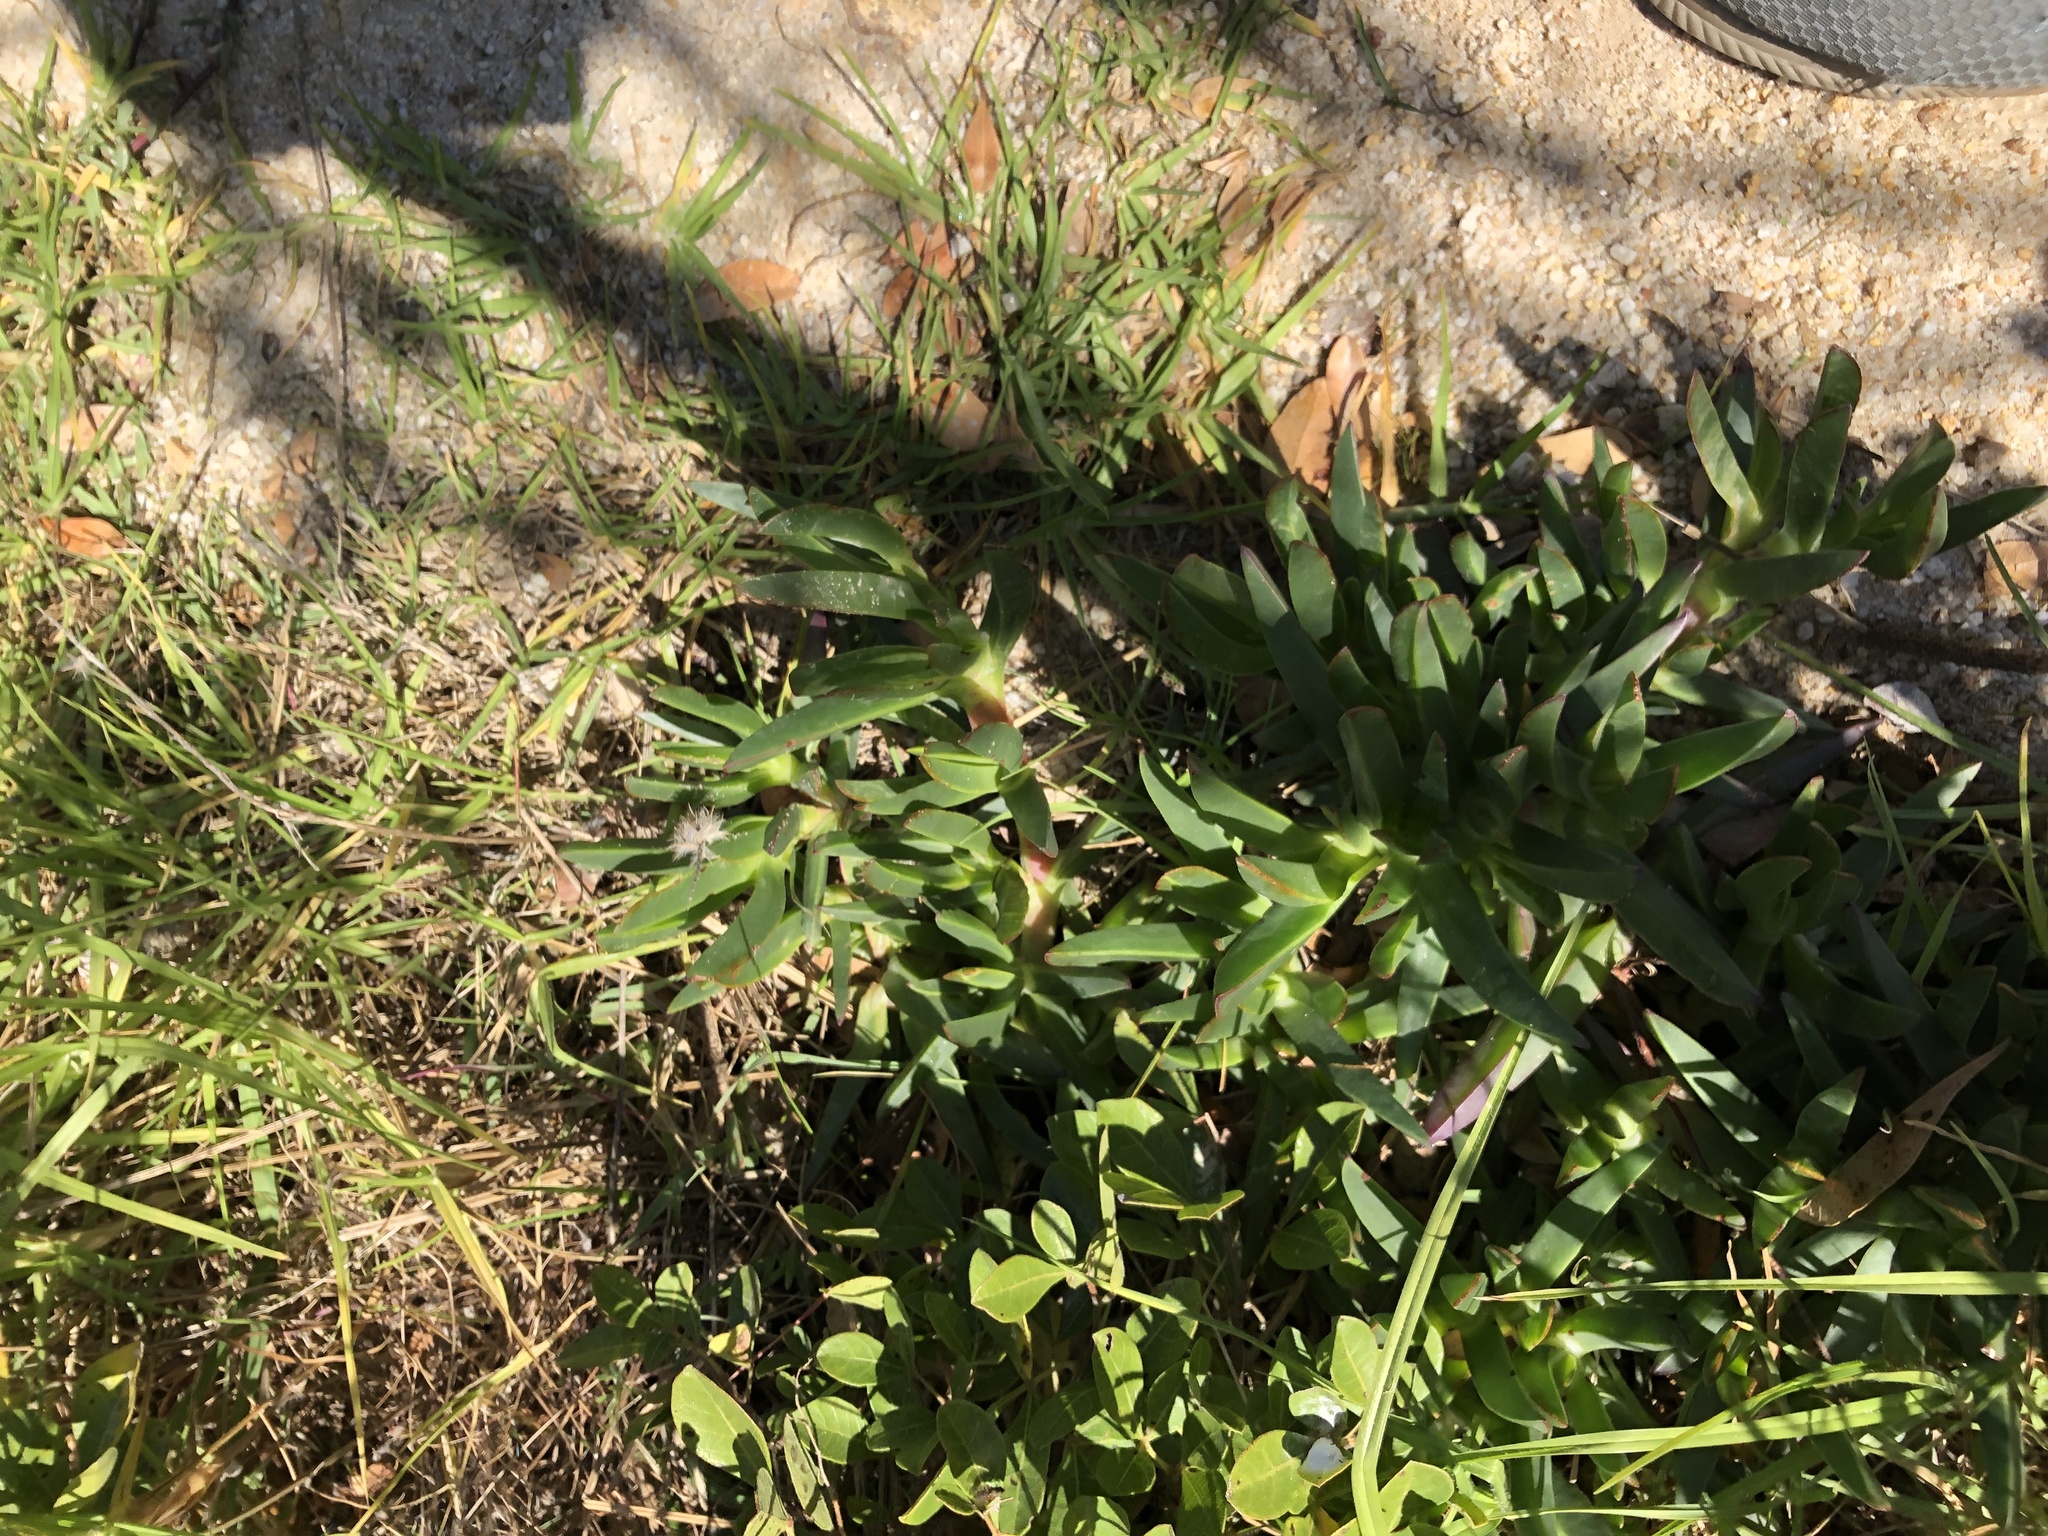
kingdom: Plantae
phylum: Tracheophyta
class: Magnoliopsida
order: Caryophyllales
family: Aizoaceae
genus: Carpobrotus
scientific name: Carpobrotus edulis
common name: Hottentot-fig
